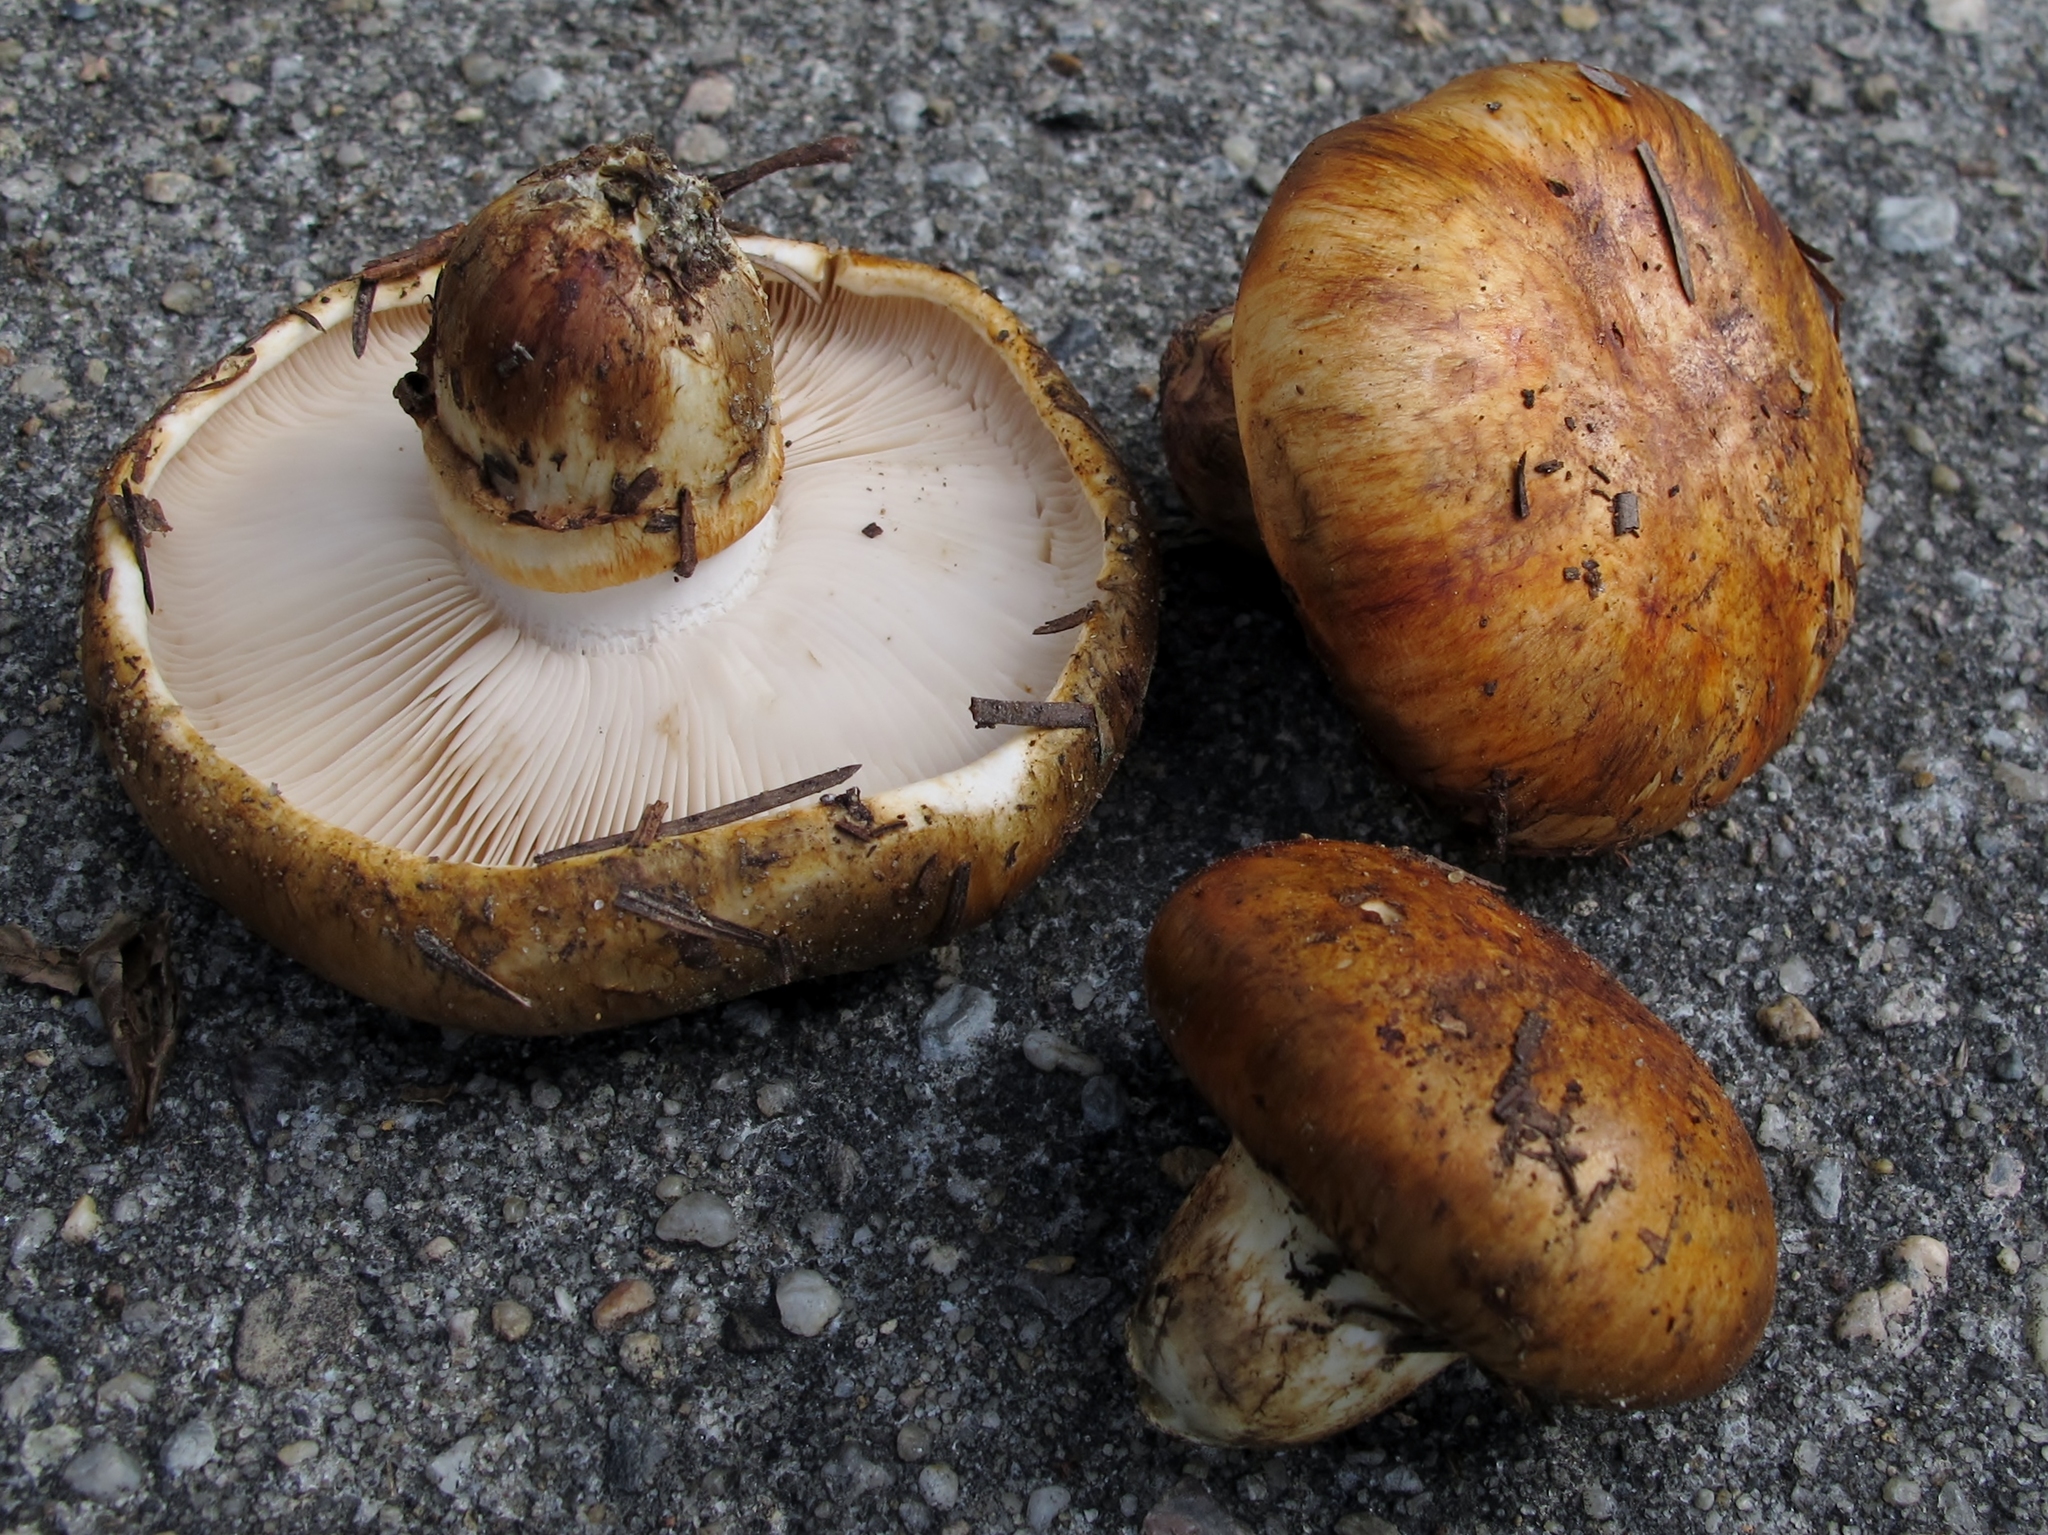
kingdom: Fungi
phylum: Basidiomycota
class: Agaricomycetes
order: Agaricales
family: Tricholomataceae
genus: Tricholoma
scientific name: Tricholoma focale
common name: Booted knight
